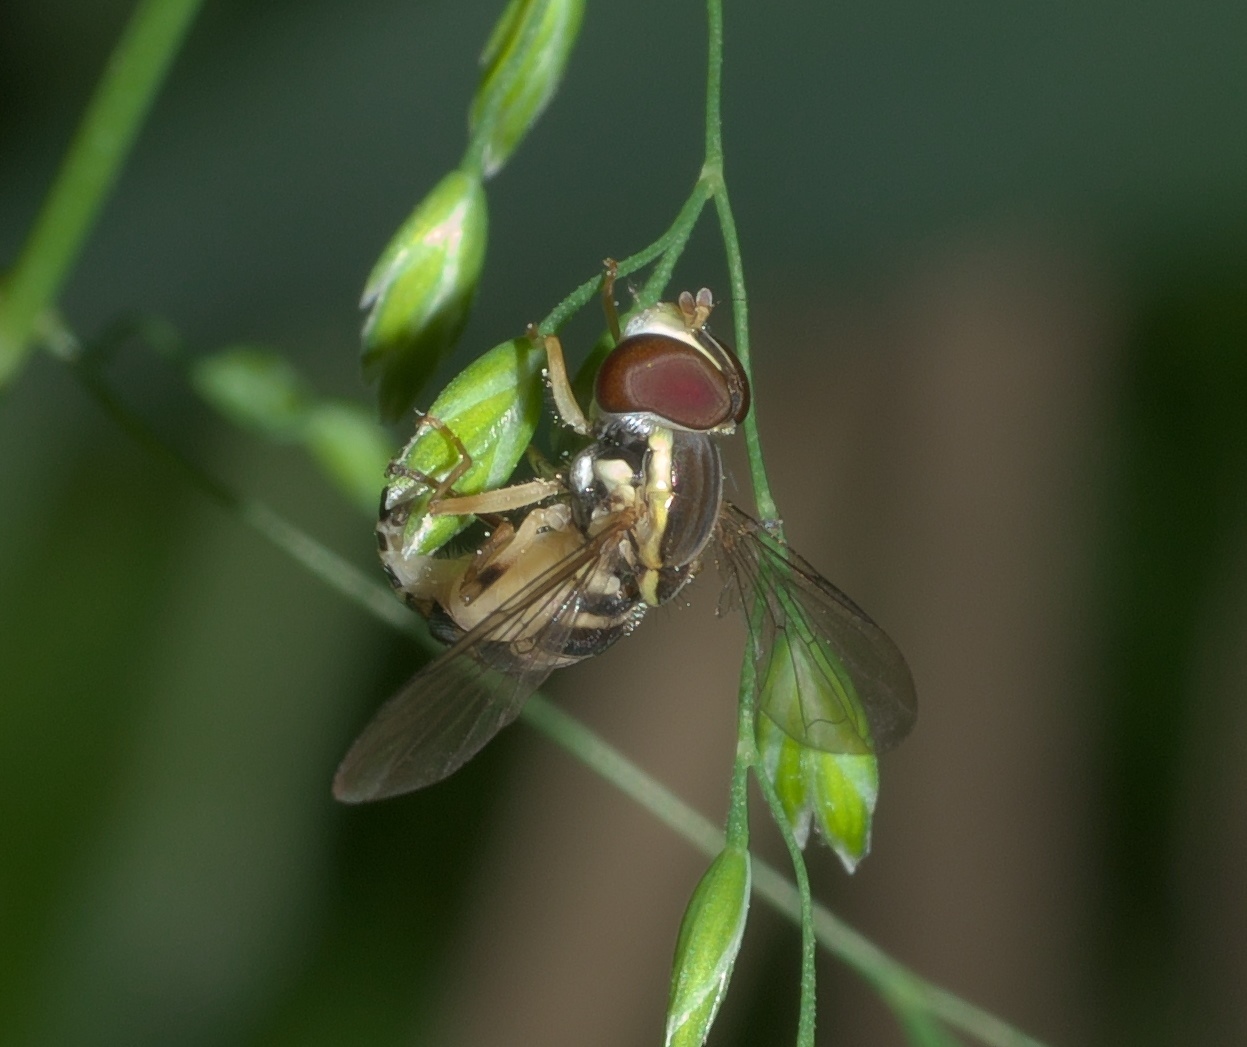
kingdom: Animalia
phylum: Arthropoda
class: Insecta
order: Diptera
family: Syrphidae
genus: Toxomerus
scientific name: Toxomerus geminatus
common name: Eastern calligrapher
